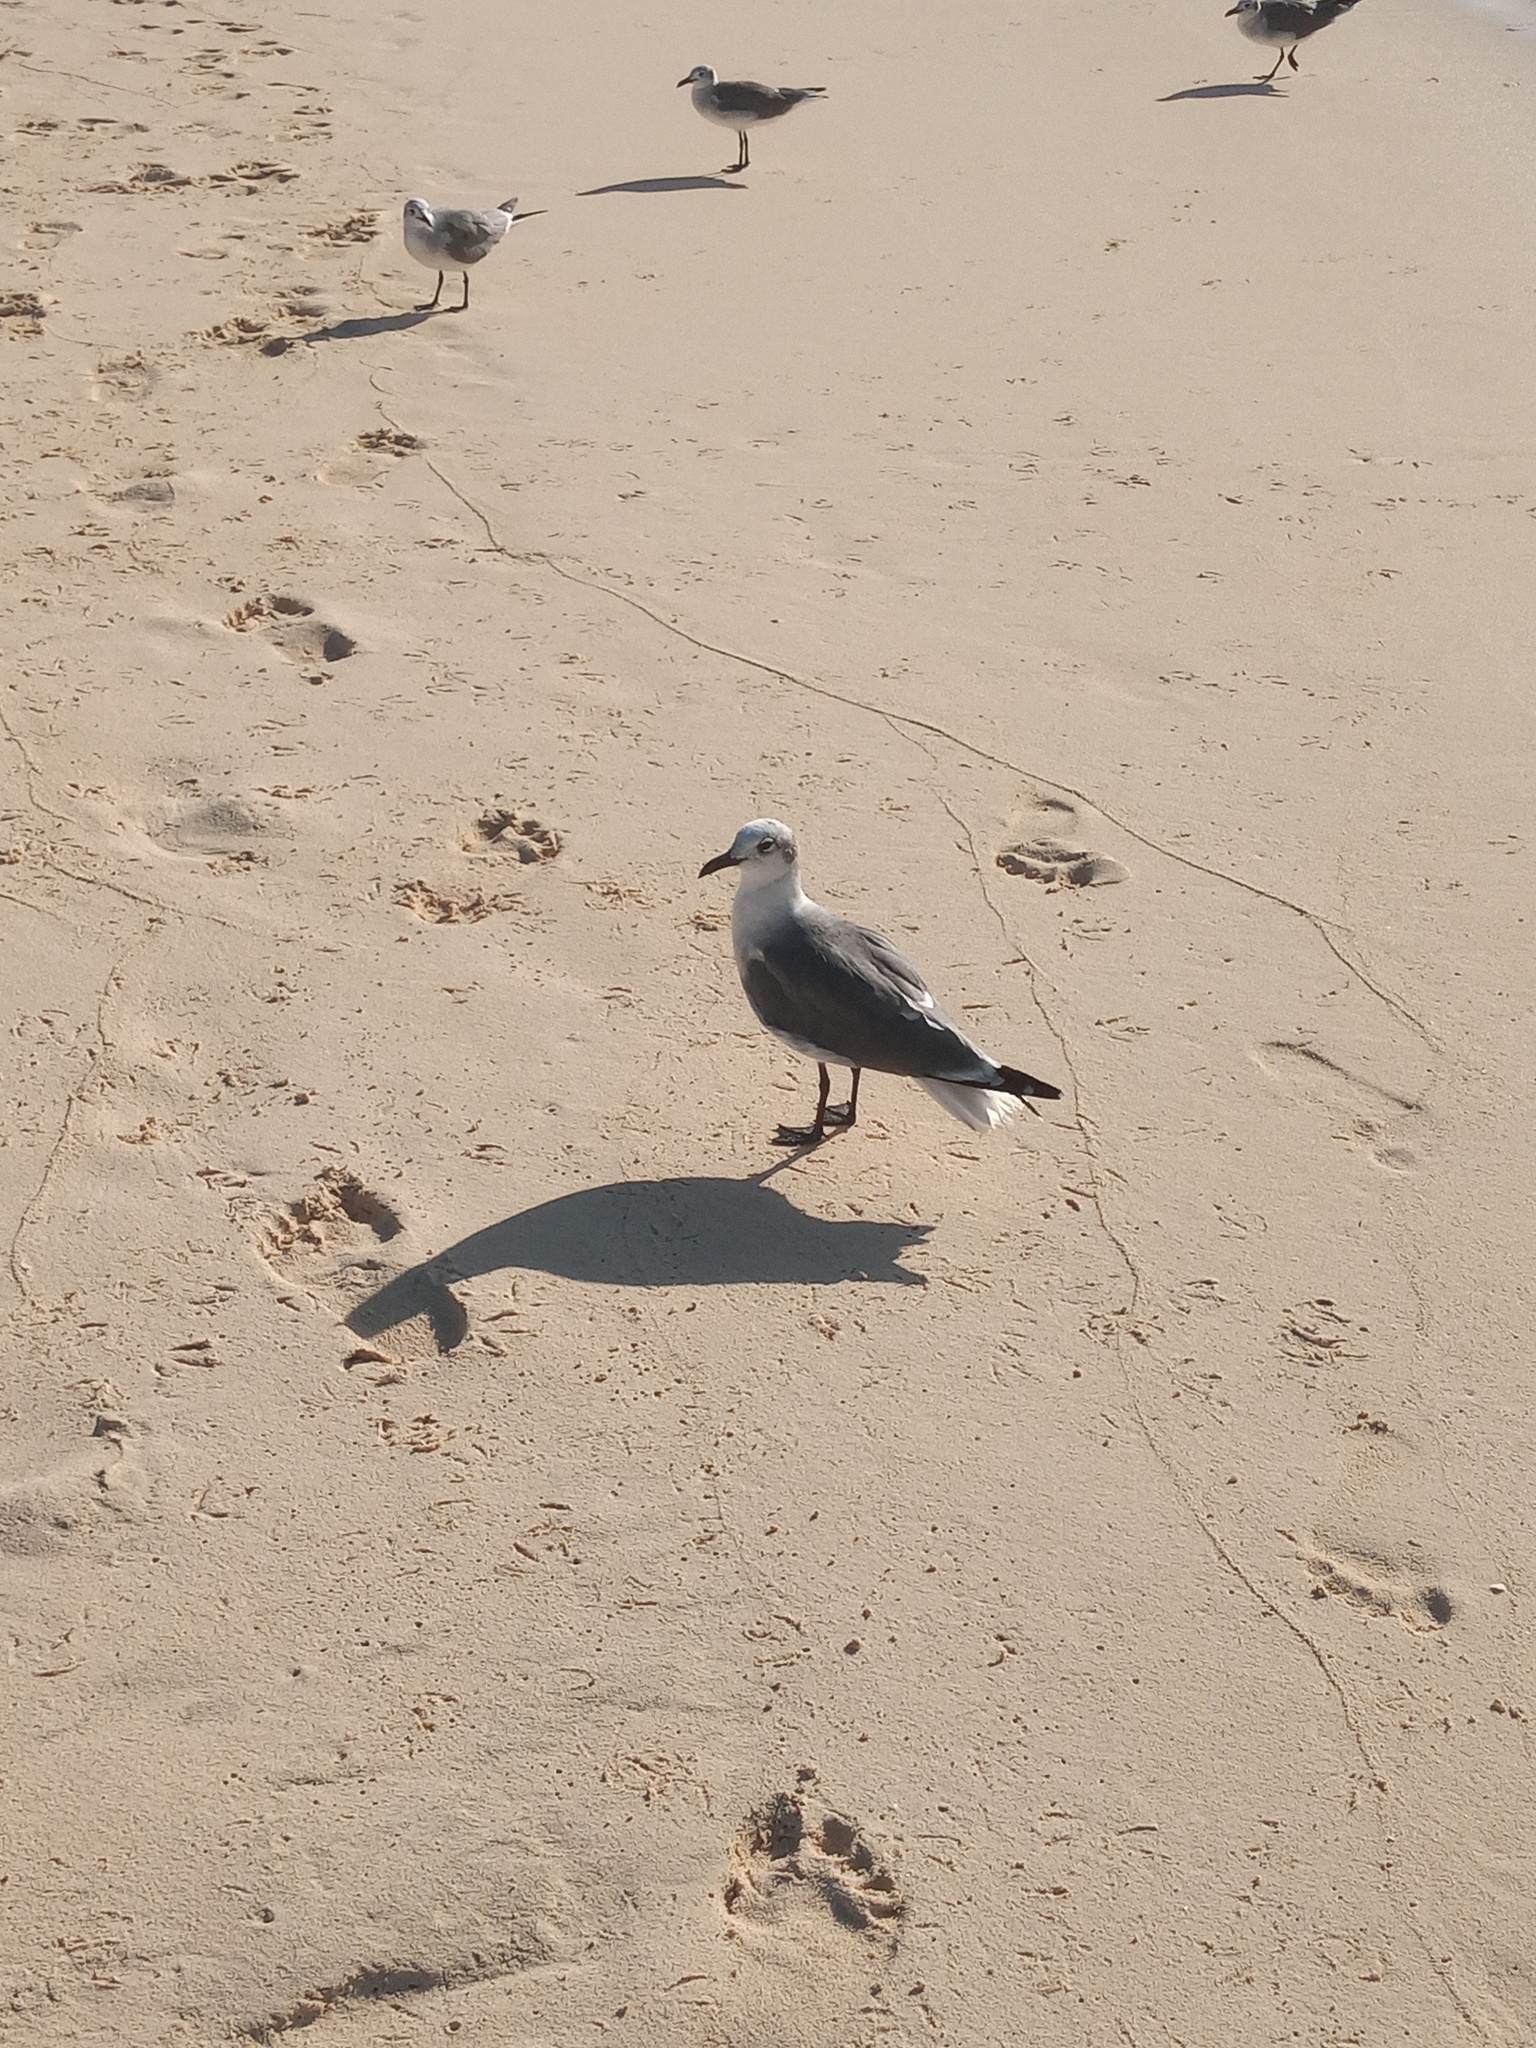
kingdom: Animalia
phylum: Chordata
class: Aves
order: Charadriiformes
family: Laridae
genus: Leucophaeus
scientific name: Leucophaeus atricilla
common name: Laughing gull
